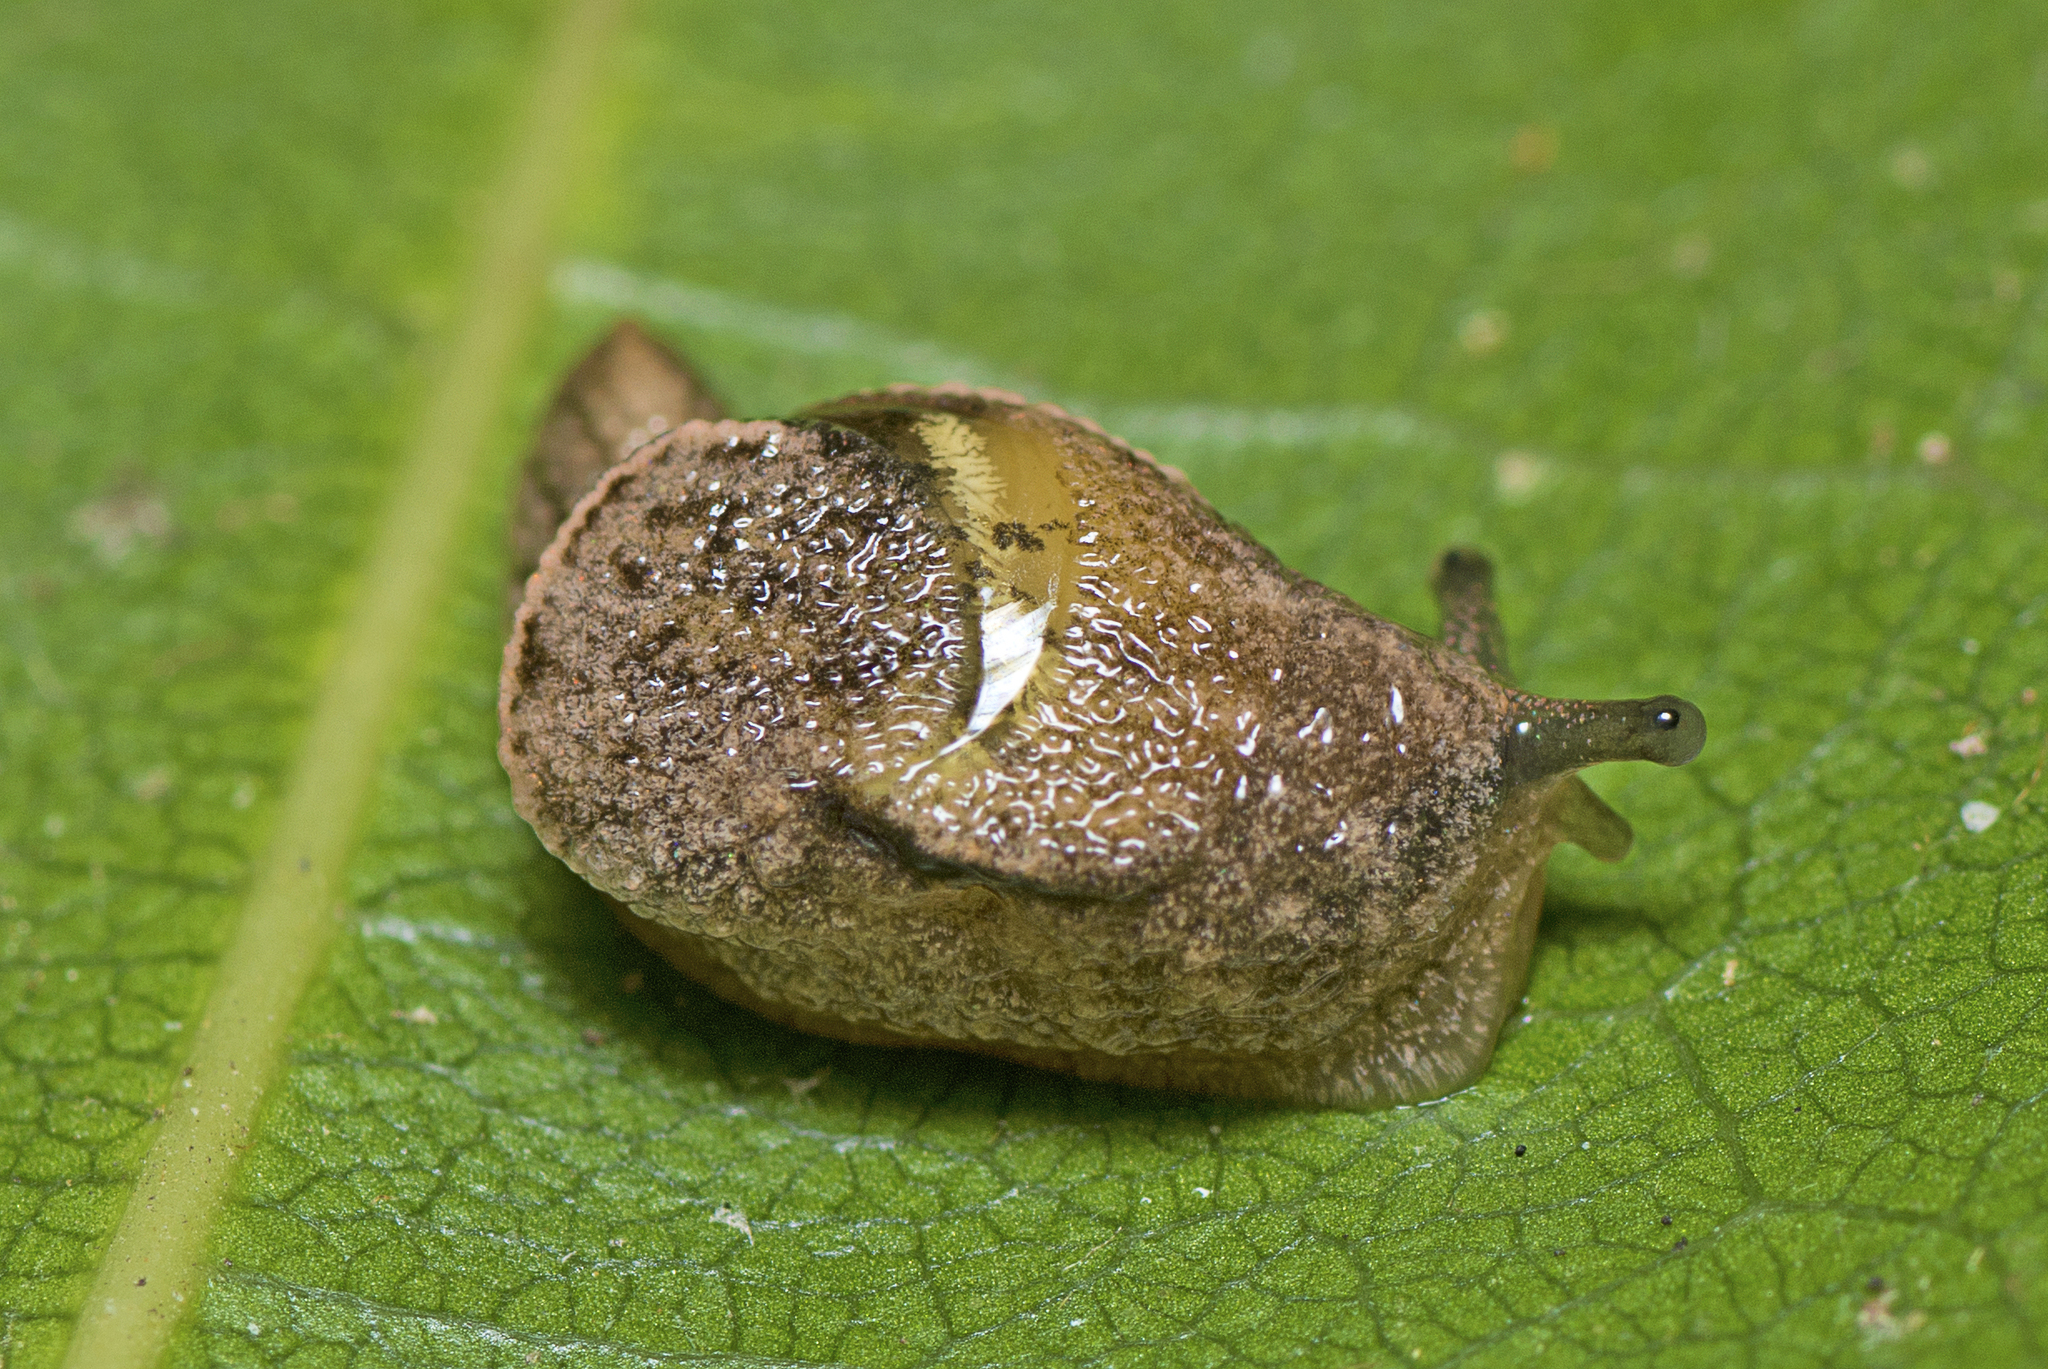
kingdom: Animalia
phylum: Mollusca
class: Gastropoda
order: Stylommatophora
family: Helicarionidae
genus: Ubiquitarion
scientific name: Ubiquitarion iridis
